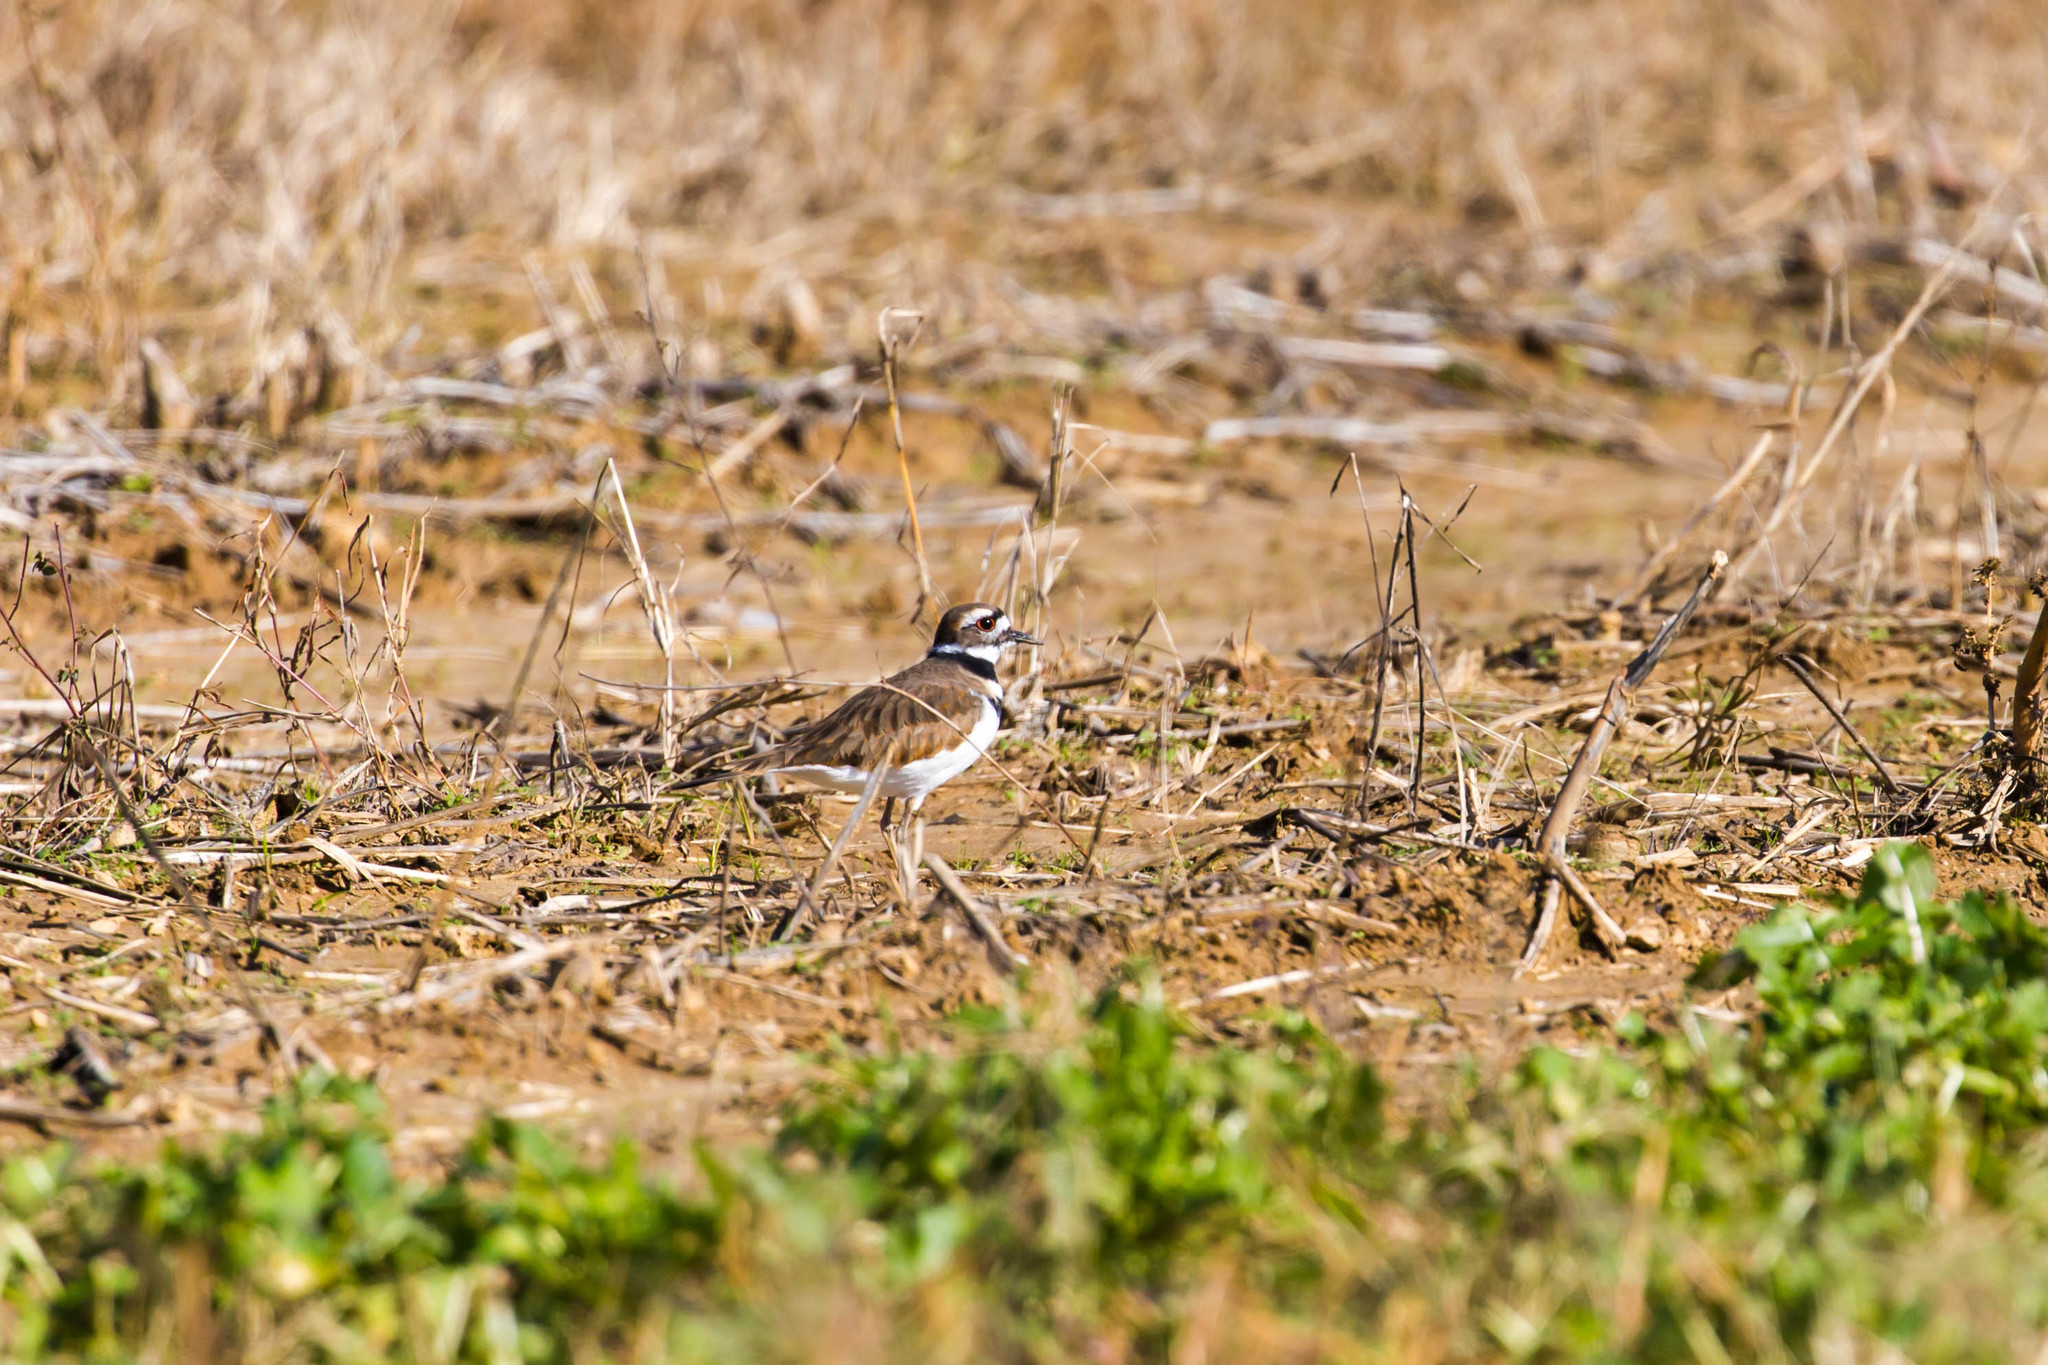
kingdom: Animalia
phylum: Chordata
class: Aves
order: Charadriiformes
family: Charadriidae
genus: Charadrius
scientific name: Charadrius vociferus
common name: Killdeer
